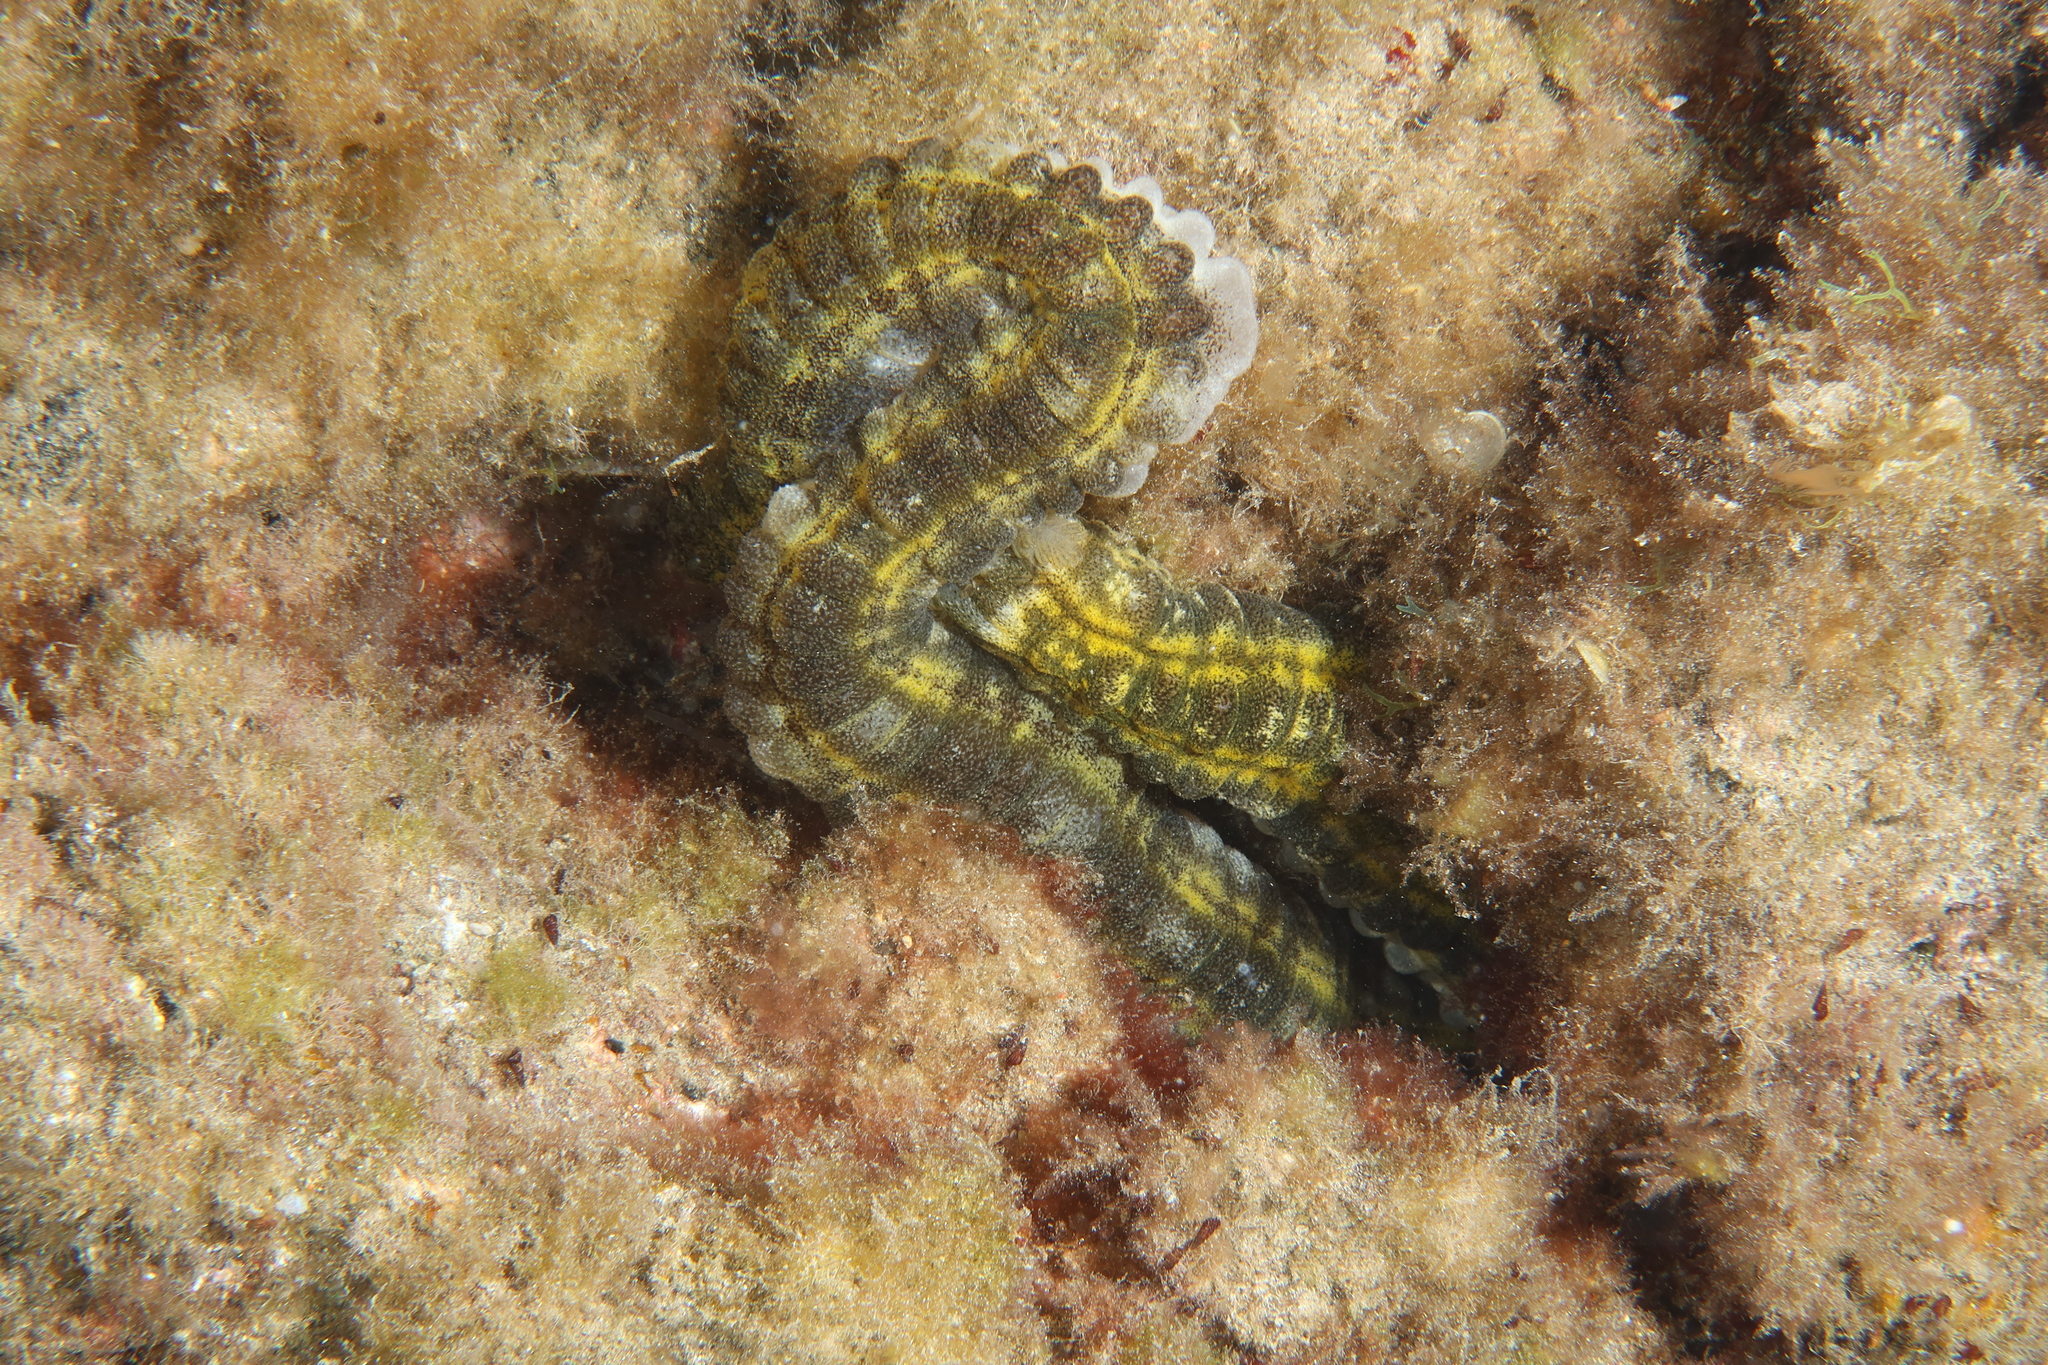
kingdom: Animalia
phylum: Echinodermata
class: Holothuroidea
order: Apodida
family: Synaptidae
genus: Euapta
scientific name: Euapta lappa
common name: Sticky-skinned sea cucumber
